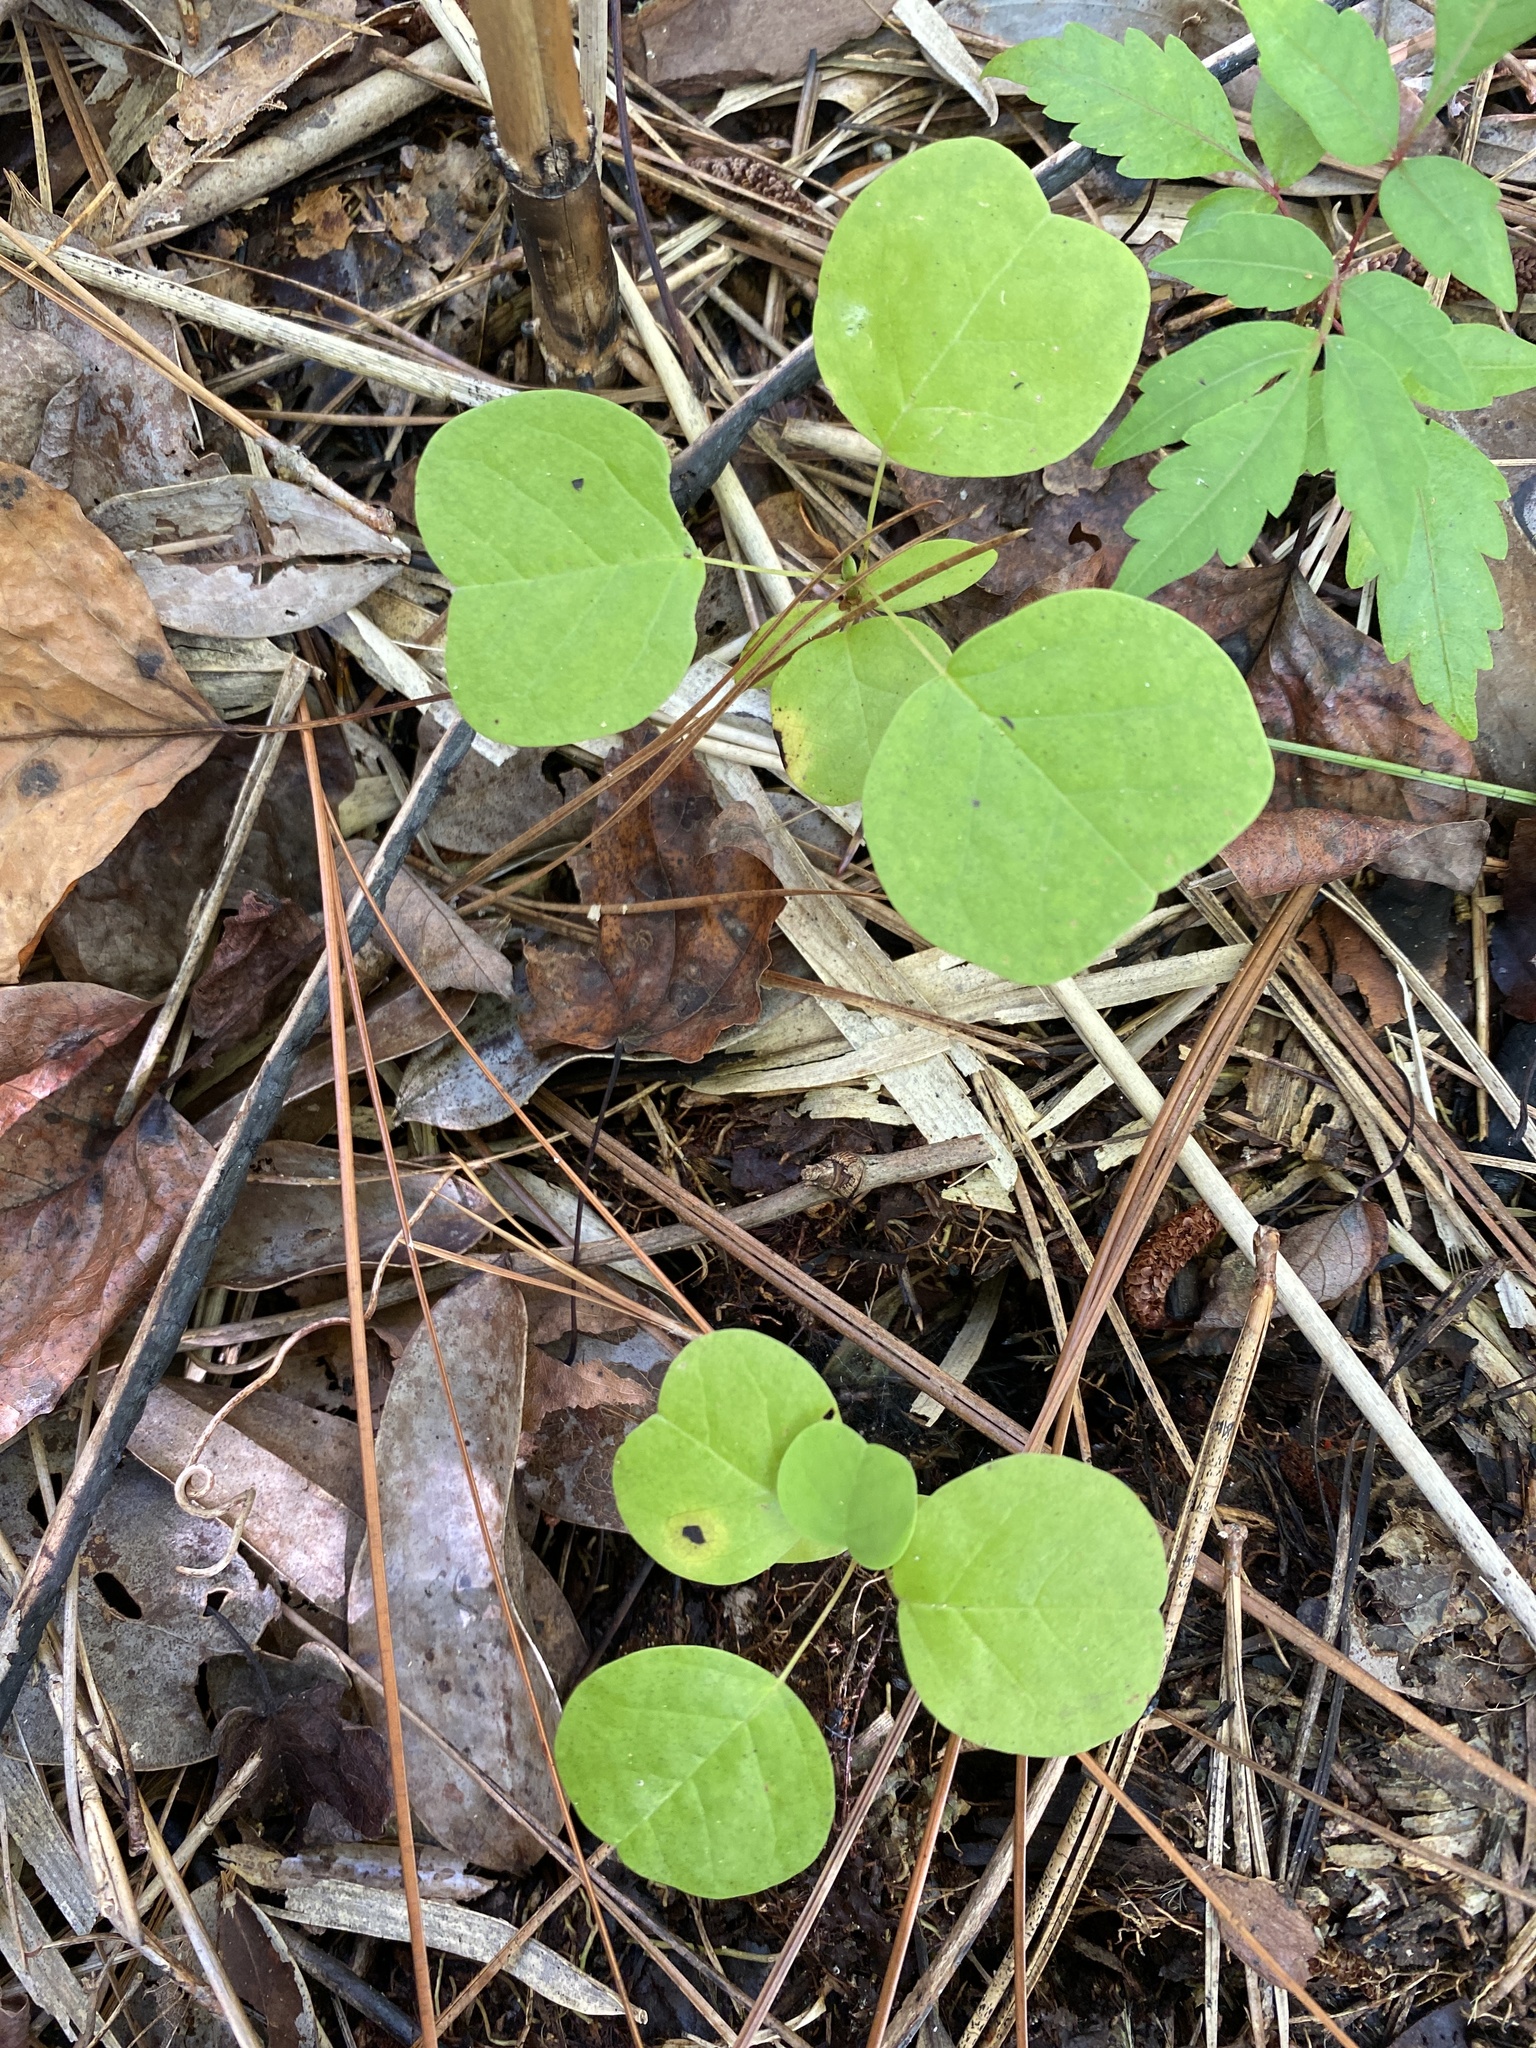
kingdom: Plantae
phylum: Tracheophyta
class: Magnoliopsida
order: Magnoliales
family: Magnoliaceae
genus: Liriodendron
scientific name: Liriodendron tulipifera
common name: Tulip tree
